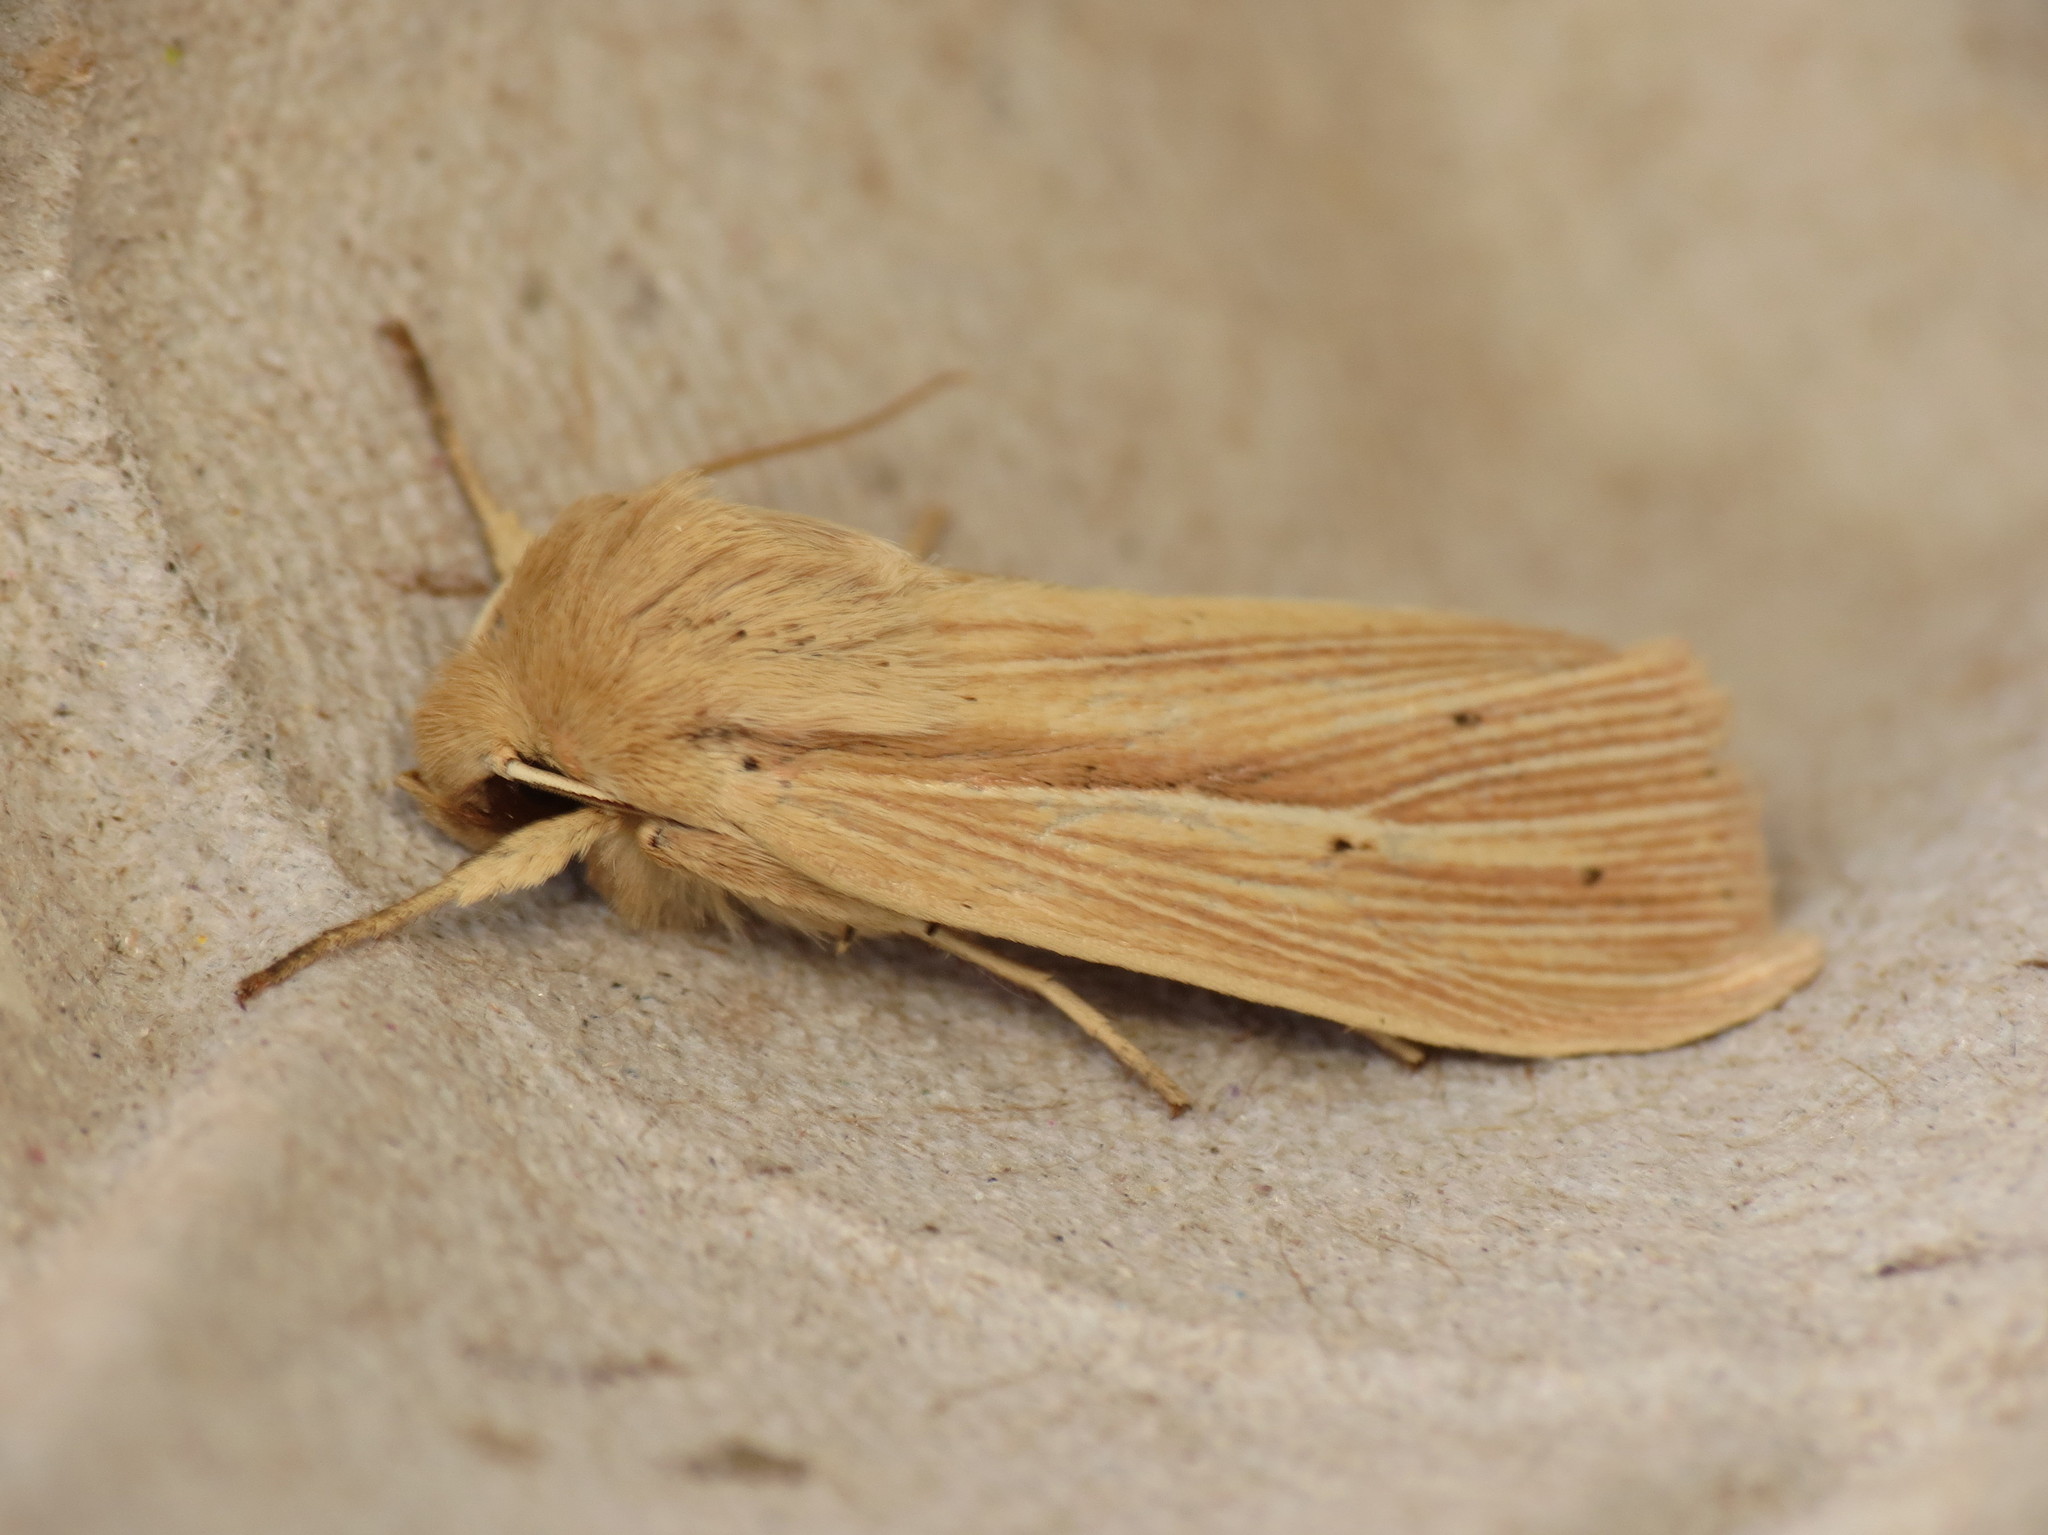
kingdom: Animalia
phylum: Arthropoda
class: Insecta
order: Lepidoptera
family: Noctuidae
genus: Mythimna
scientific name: Mythimna impura
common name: Smoky wainscot
